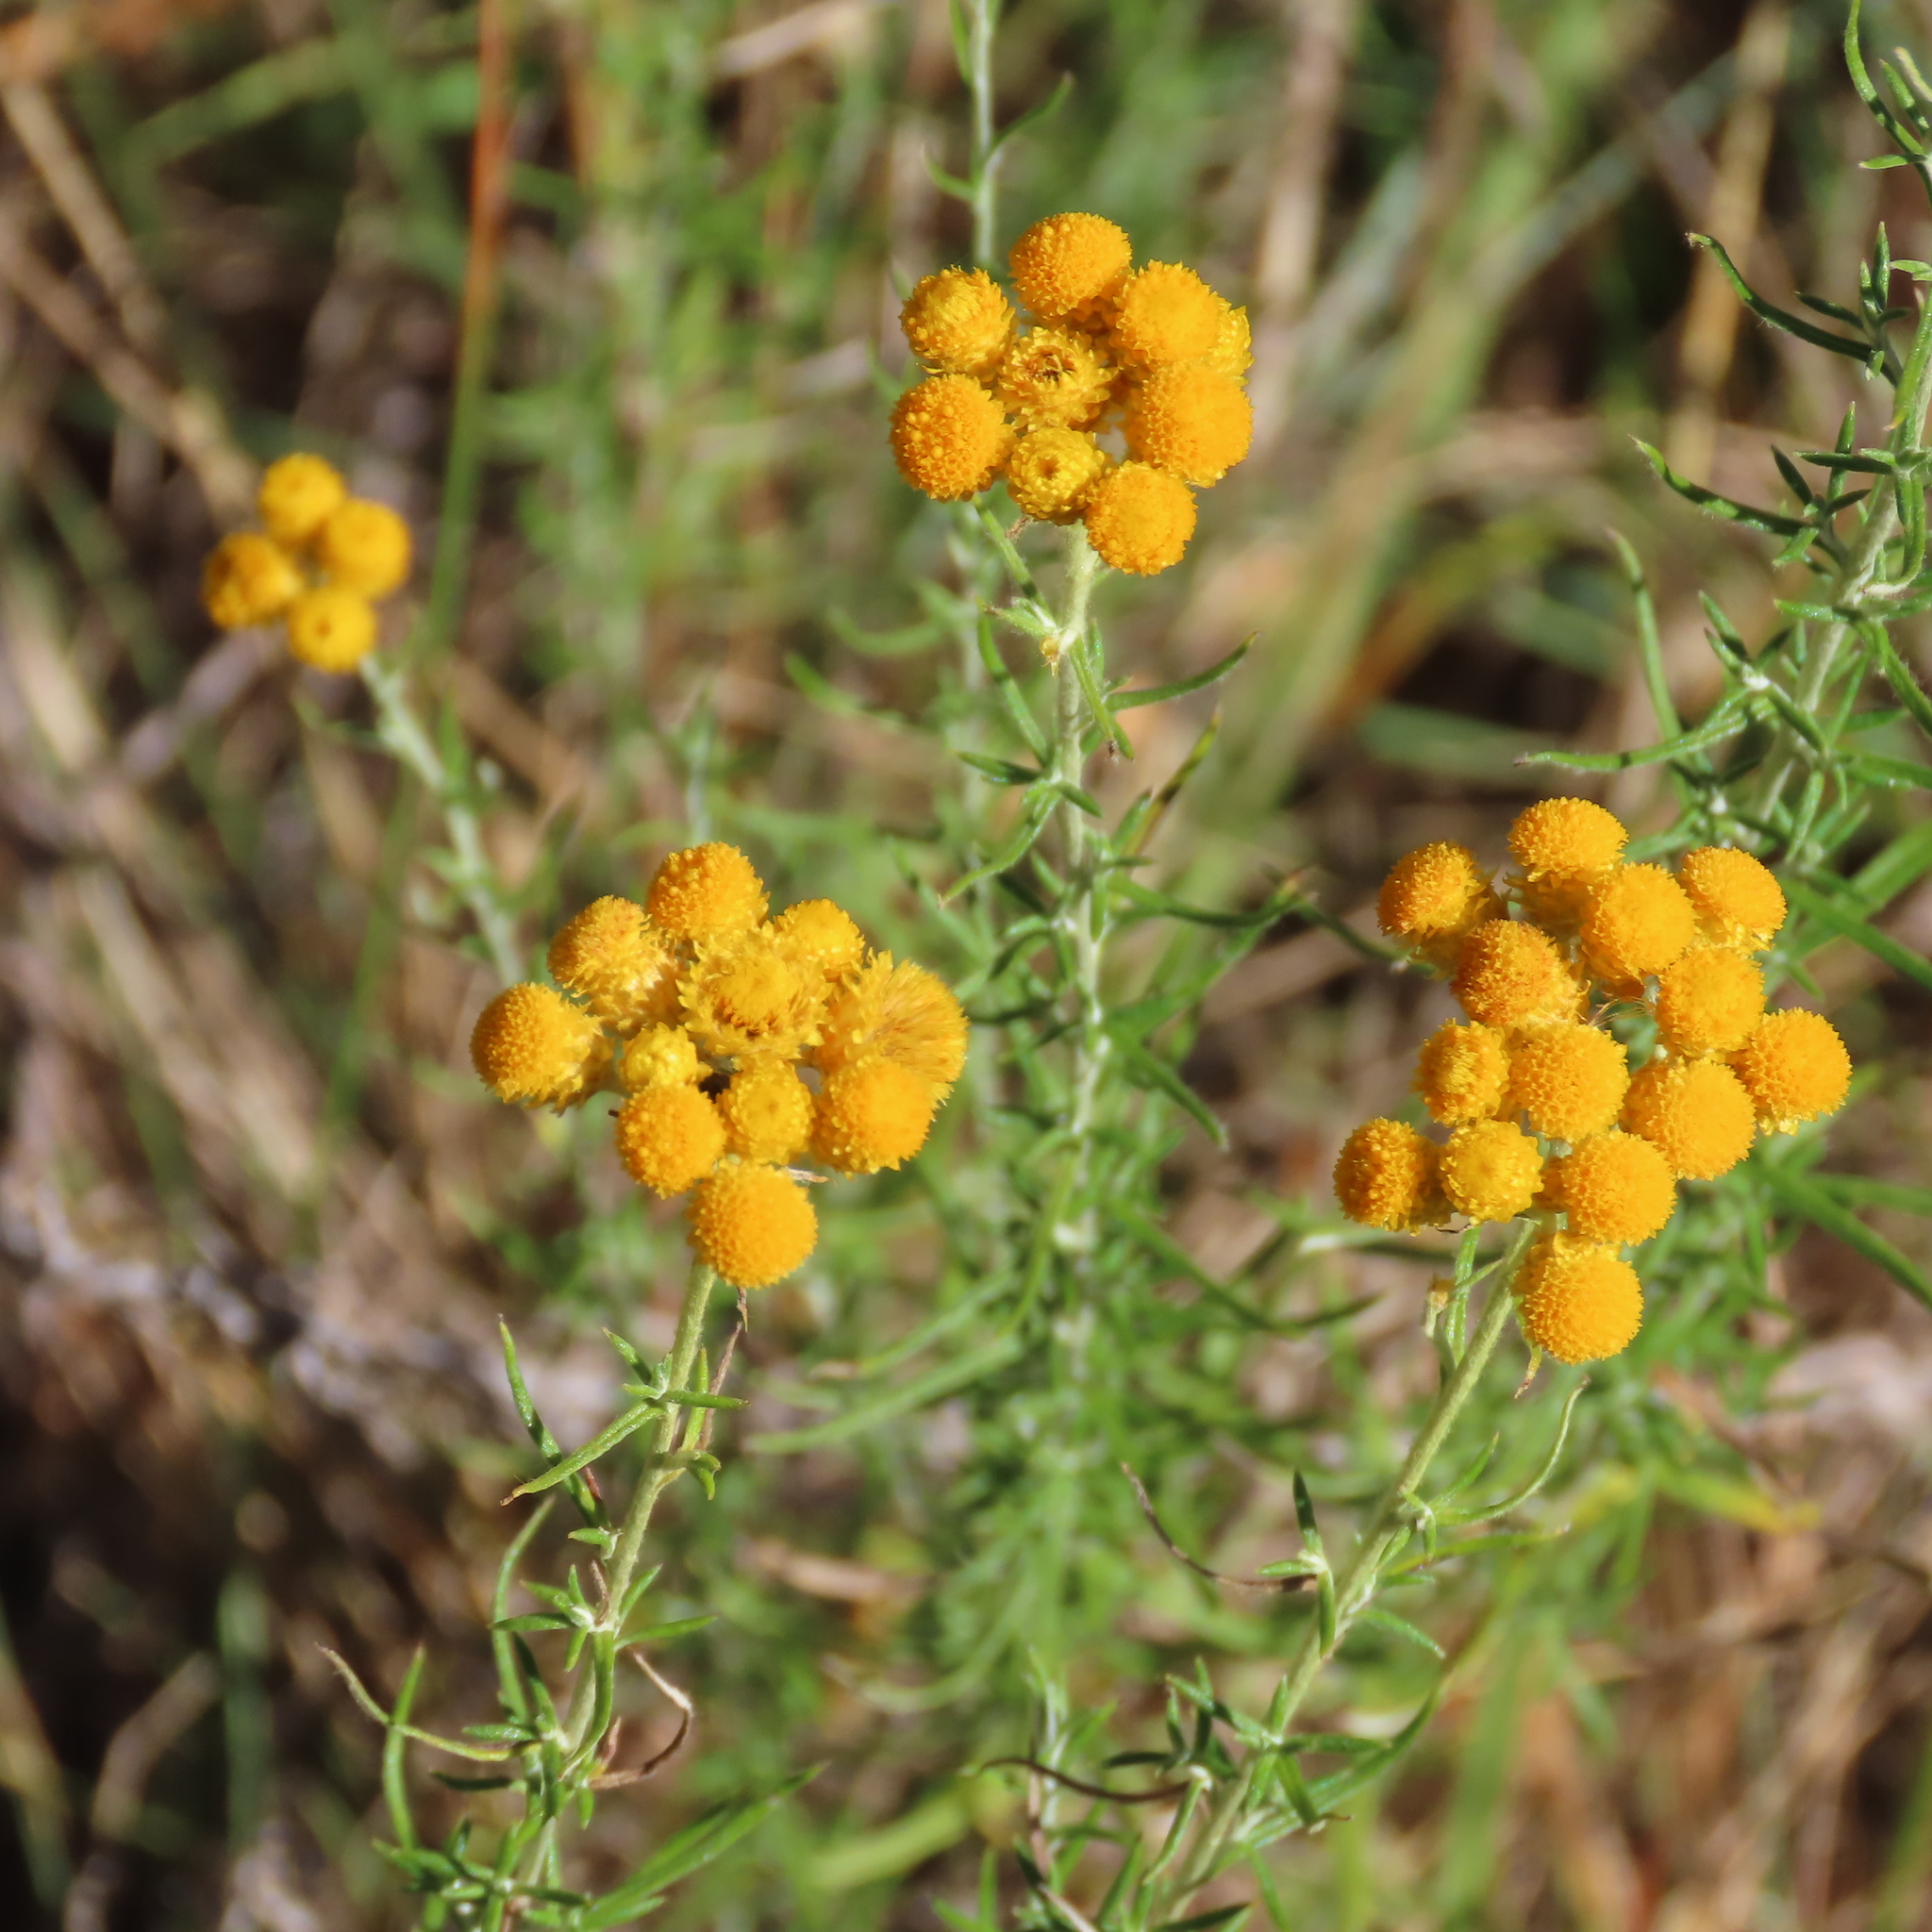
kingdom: Plantae
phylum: Tracheophyta
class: Magnoliopsida
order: Asterales
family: Asteraceae
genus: Chrysocephalum
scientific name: Chrysocephalum semipapposum
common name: Clustered everlasting
